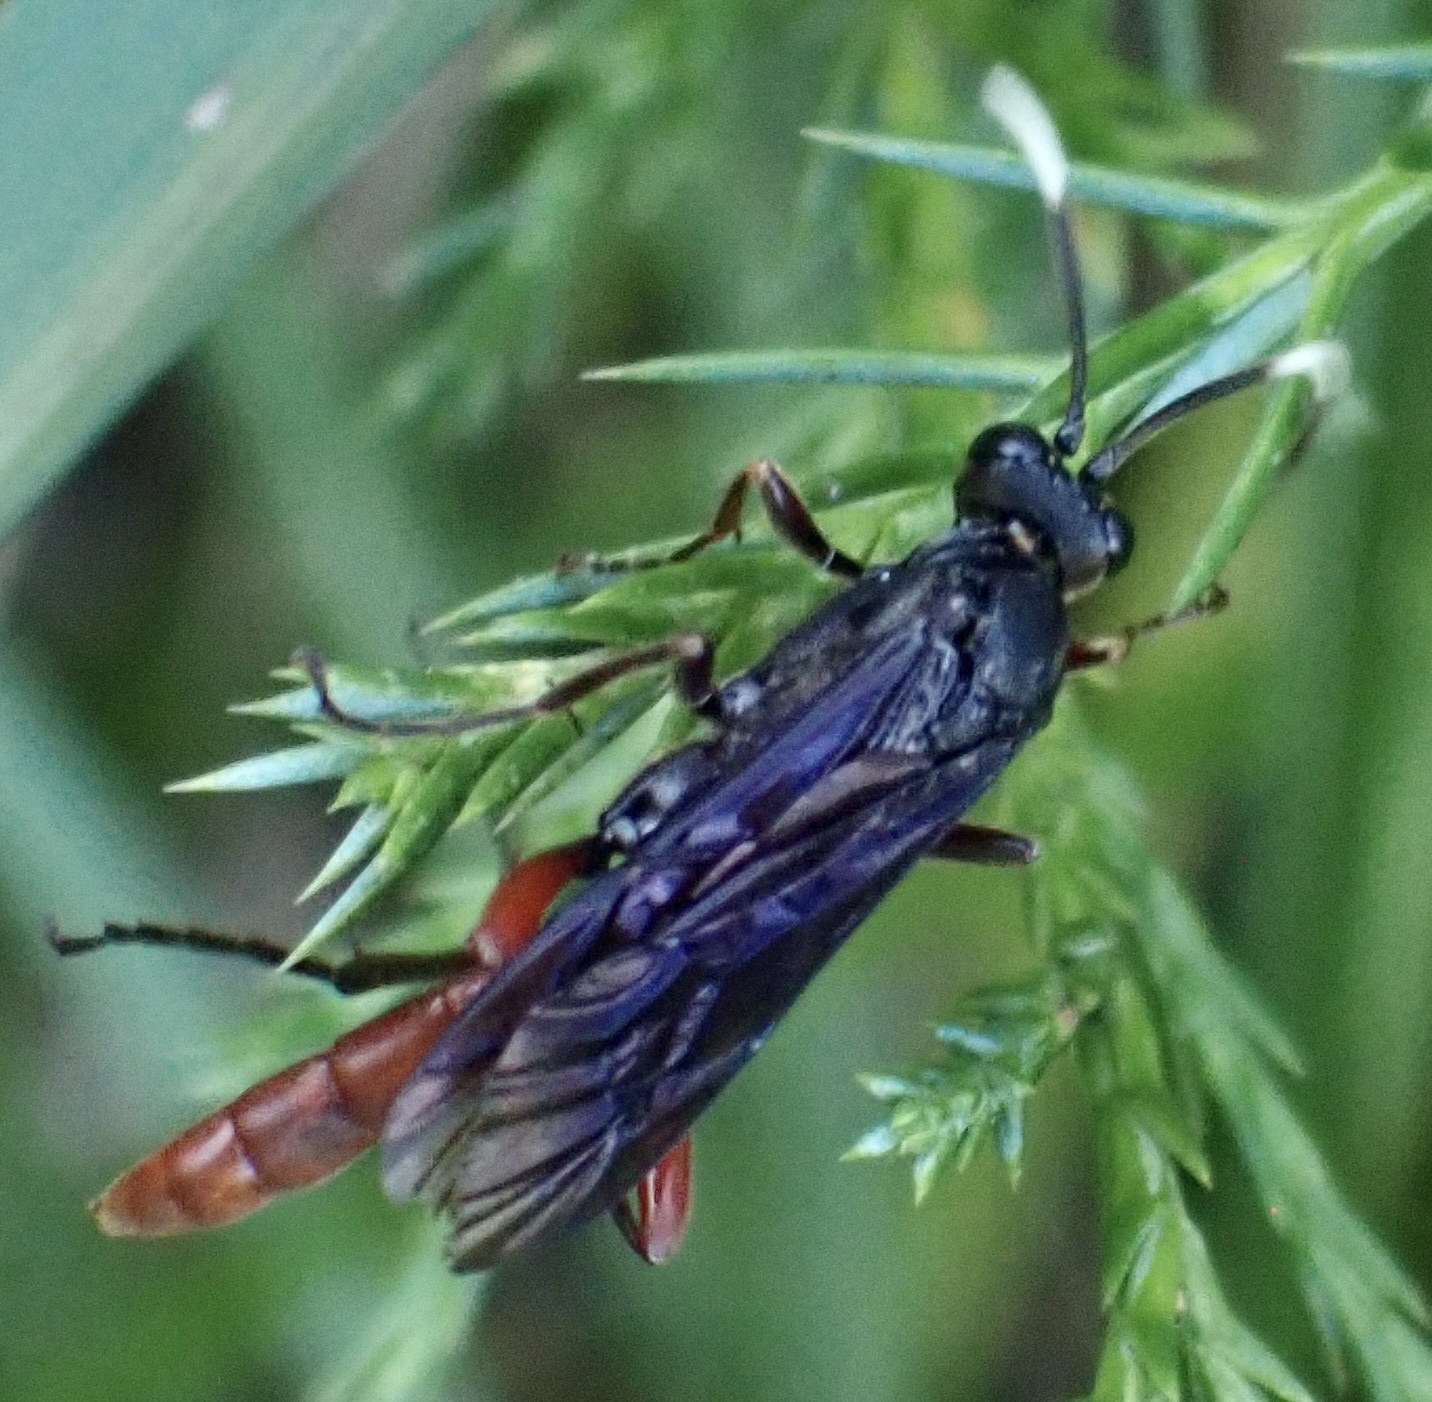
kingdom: Animalia
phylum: Arthropoda
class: Insecta
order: Hymenoptera
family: Ichneumonidae
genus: Limonethe
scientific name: Limonethe maurator
